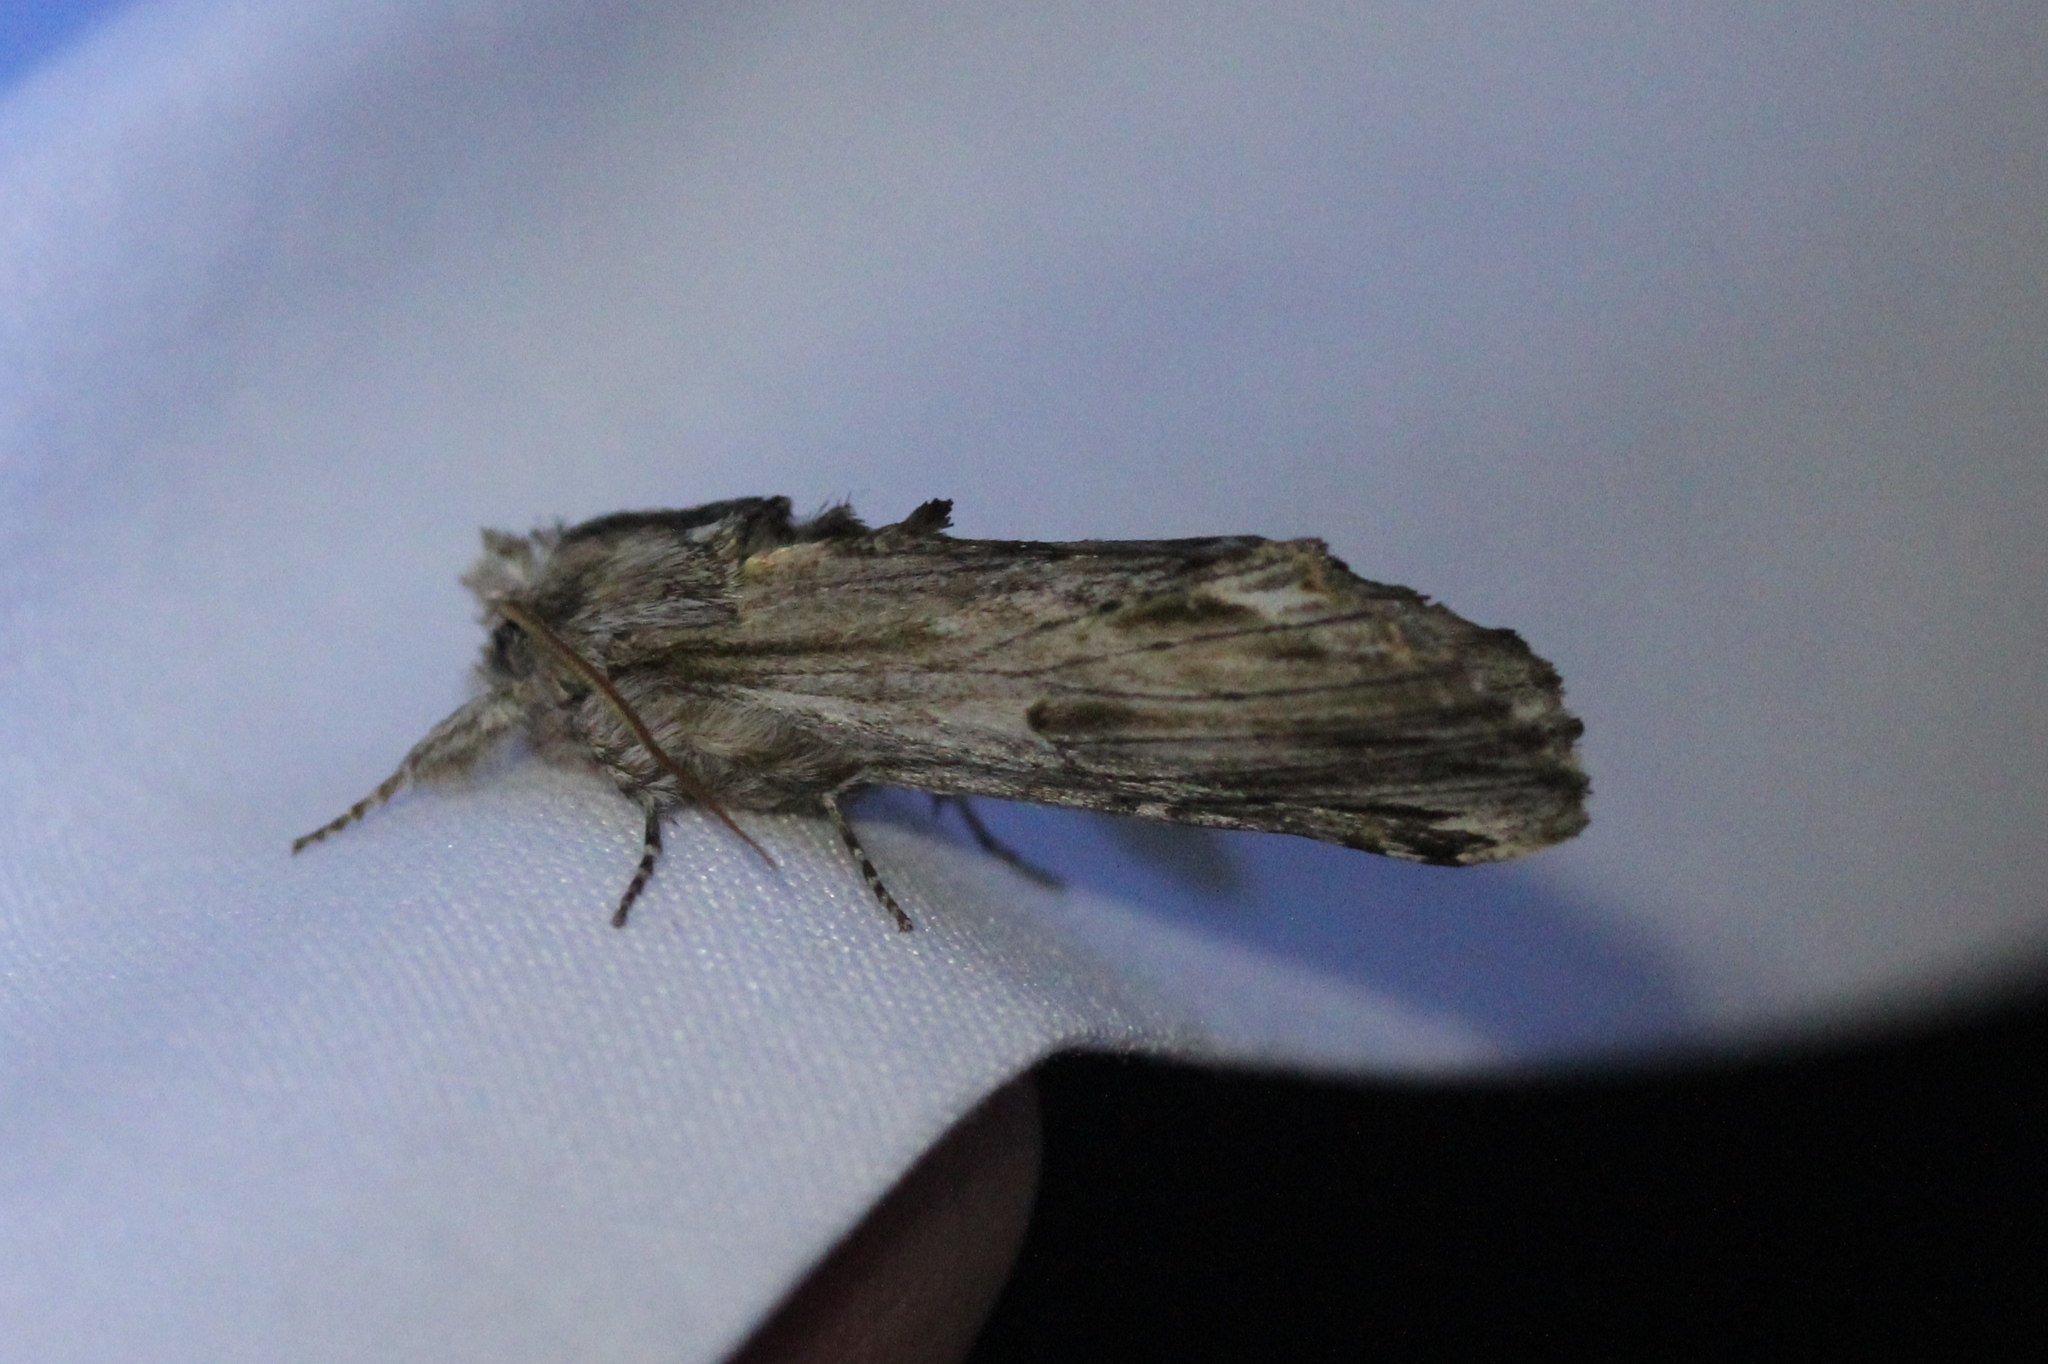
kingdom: Animalia
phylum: Arthropoda
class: Insecta
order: Lepidoptera
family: Notodontidae
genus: Oligocentria
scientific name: Oligocentria Ianassa lignicolor
